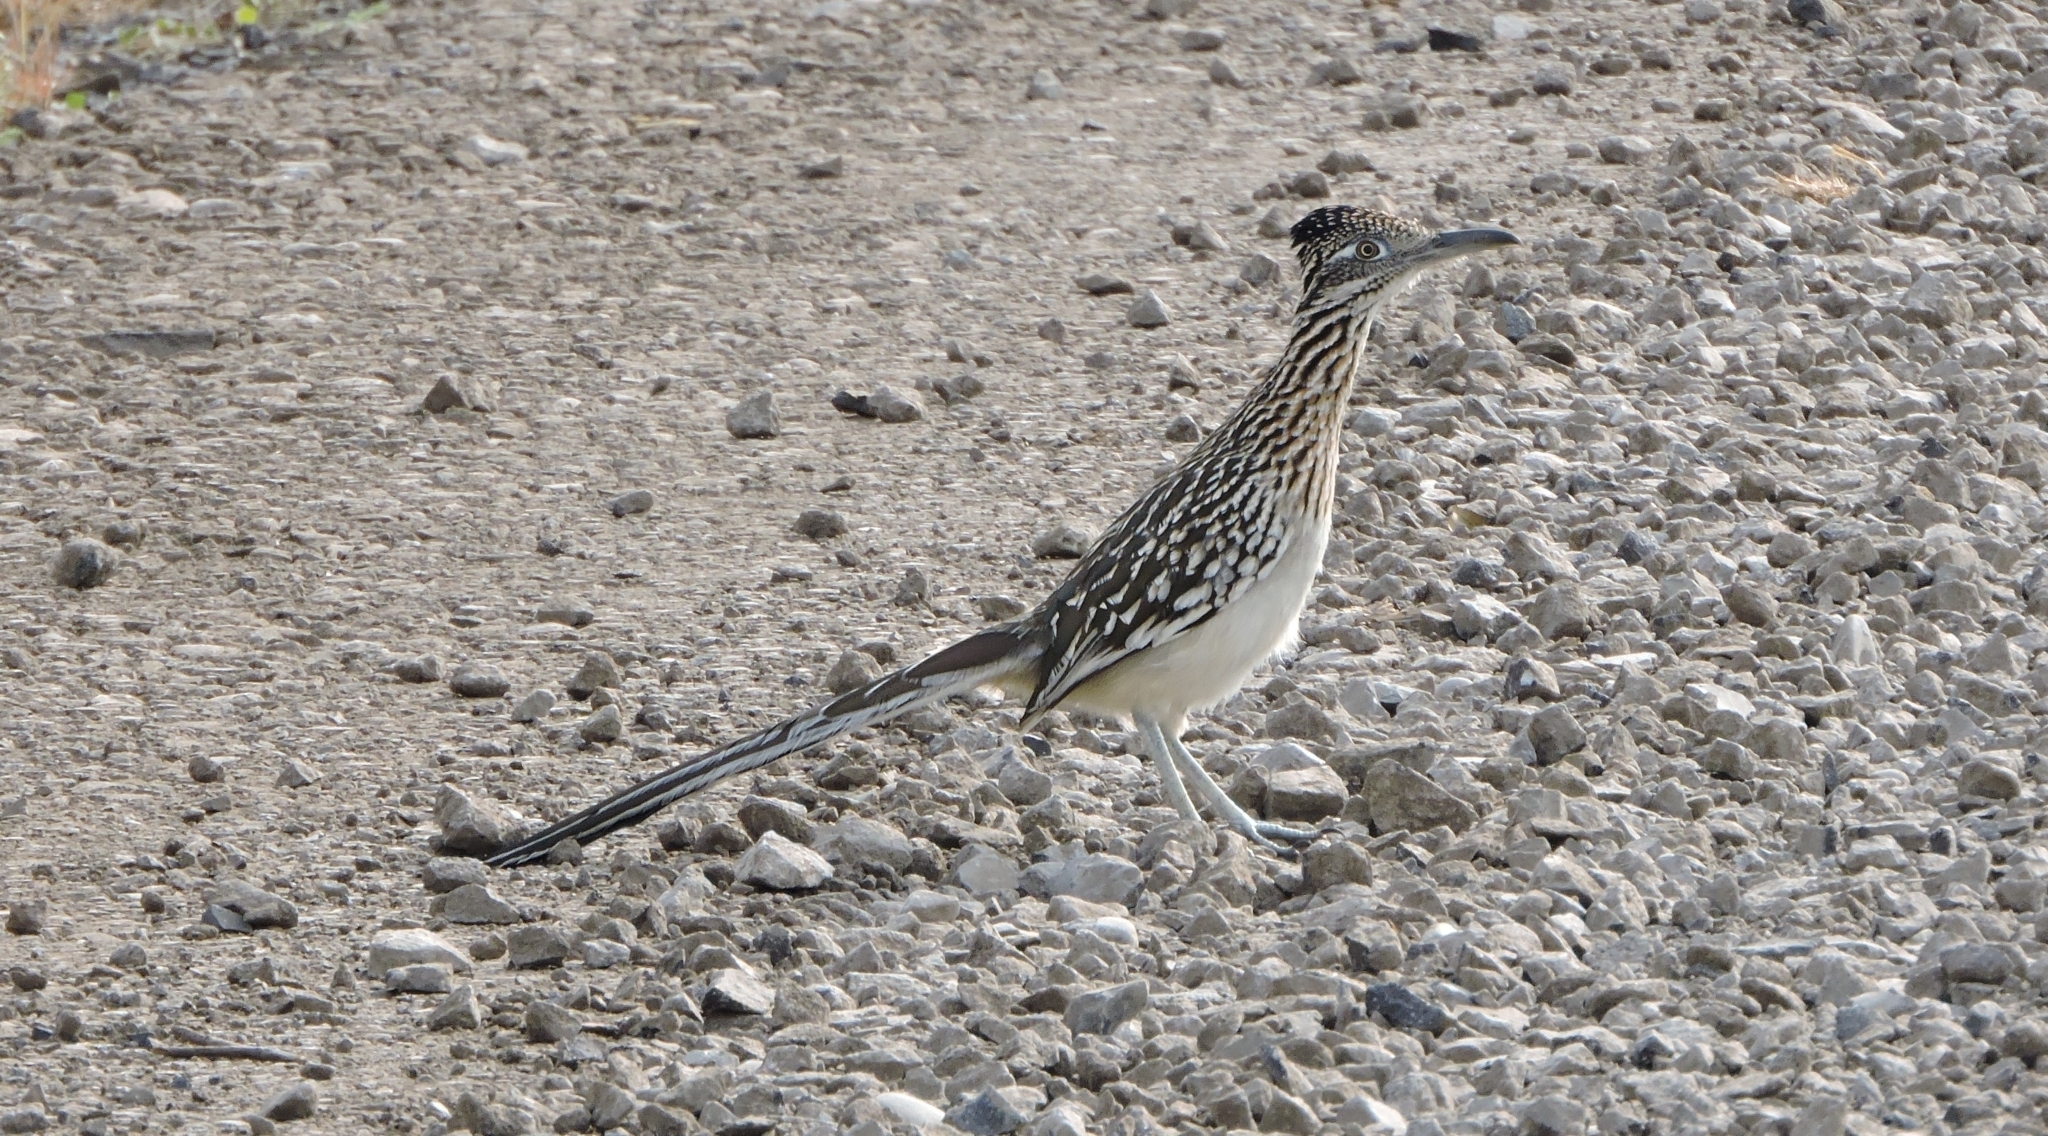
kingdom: Animalia
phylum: Chordata
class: Aves
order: Cuculiformes
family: Cuculidae
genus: Geococcyx
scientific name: Geococcyx californianus
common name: Greater roadrunner
